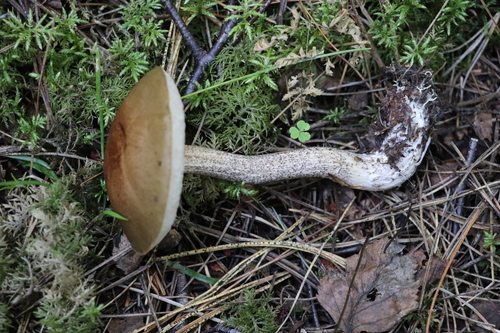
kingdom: Fungi
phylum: Basidiomycota
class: Agaricomycetes
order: Boletales
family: Boletaceae
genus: Leccinum
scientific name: Leccinum
